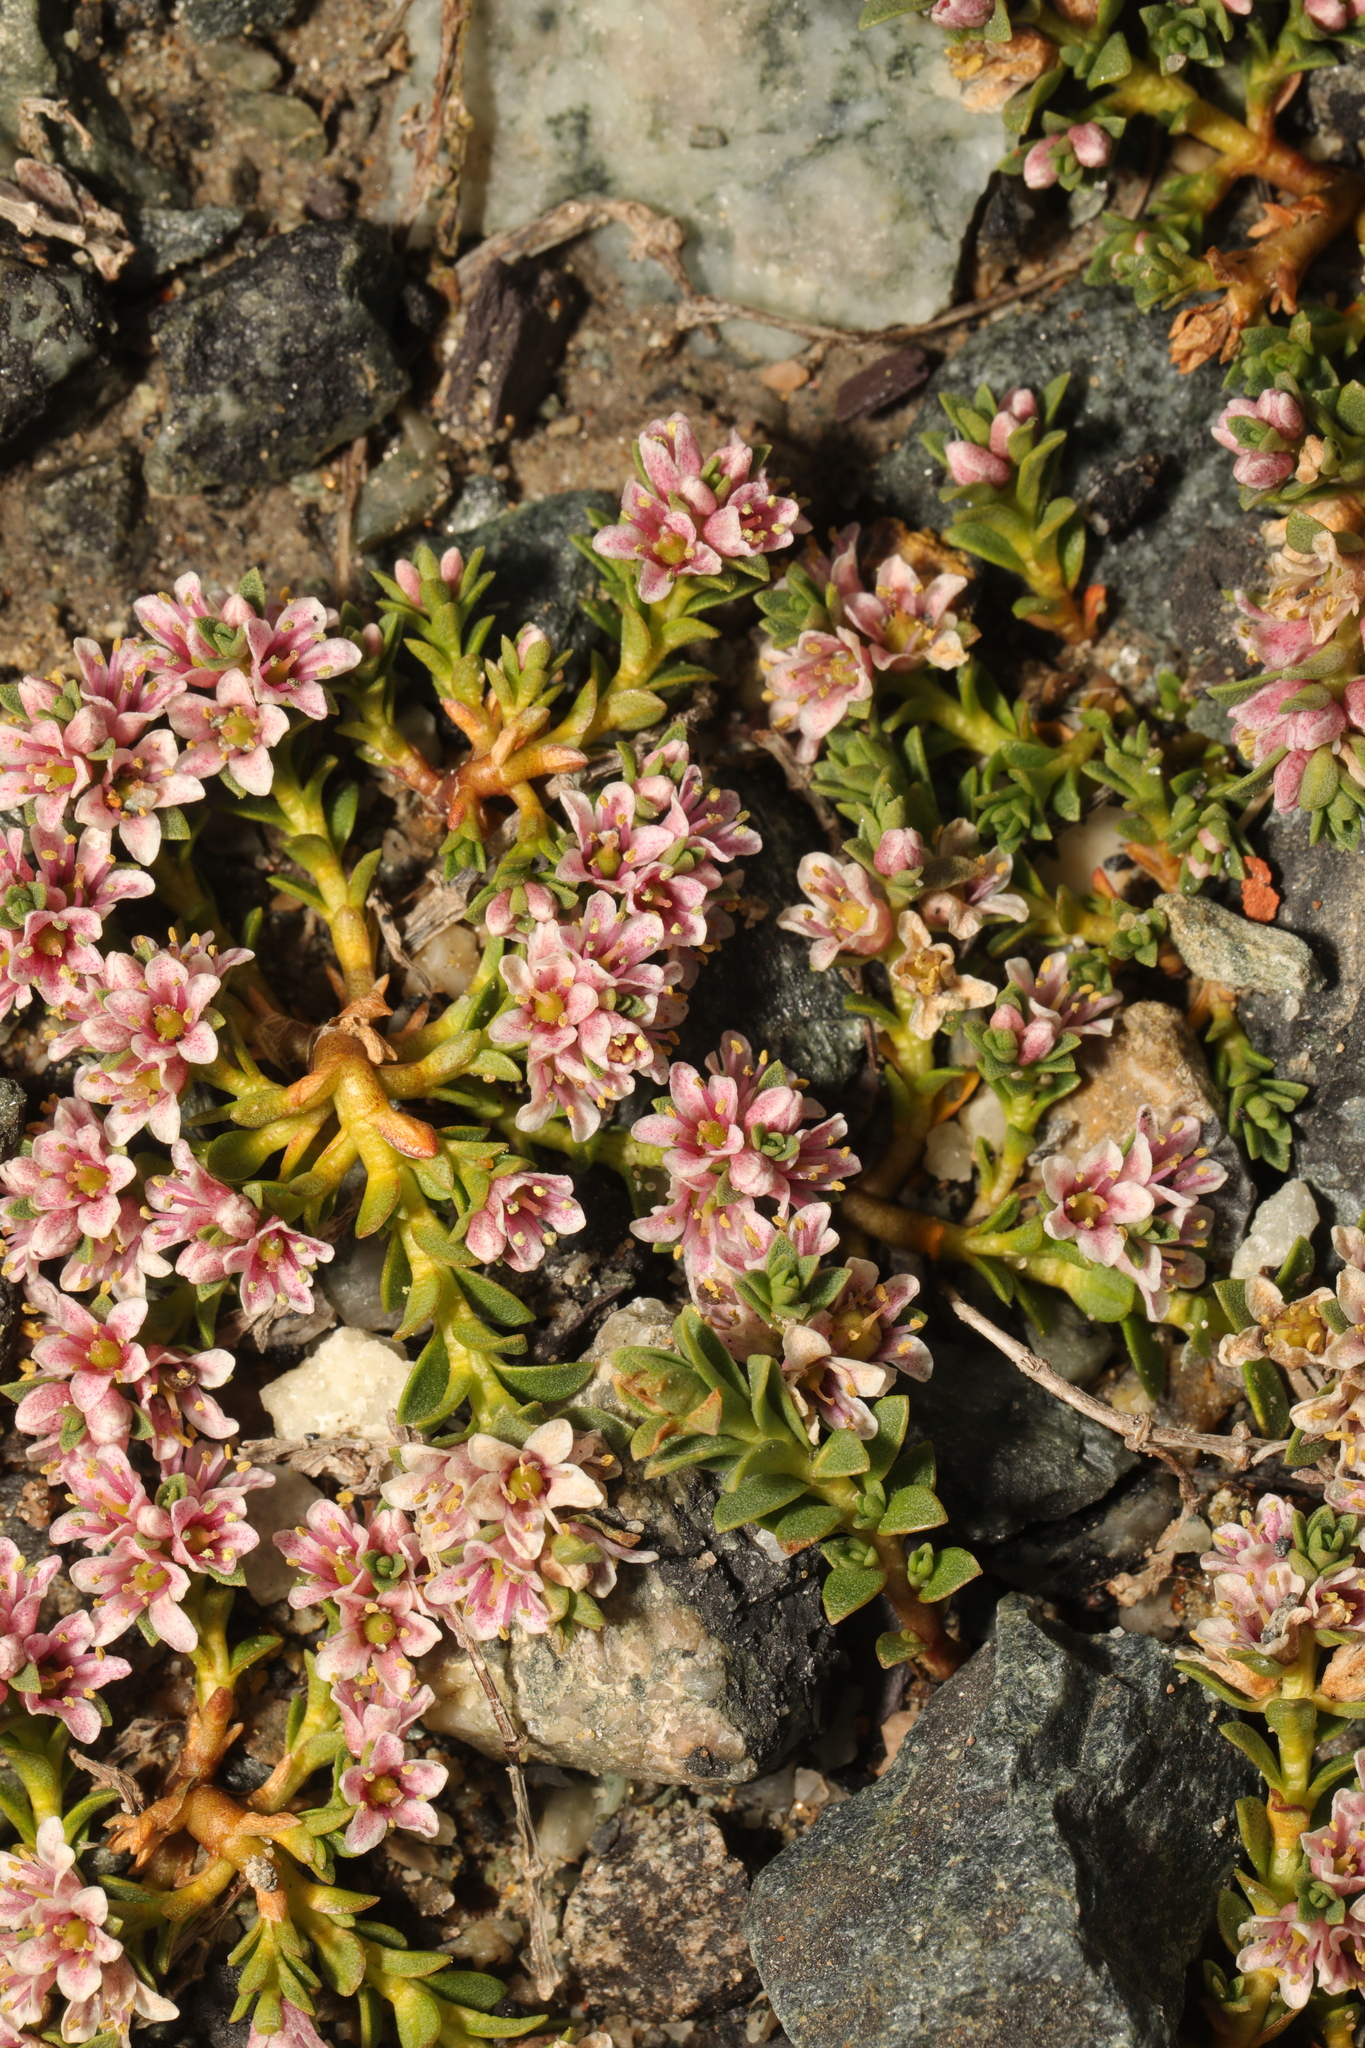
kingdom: Plantae
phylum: Tracheophyta
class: Magnoliopsida
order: Ericales
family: Primulaceae
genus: Lysimachia
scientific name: Lysimachia maritima
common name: Sea milkwort
